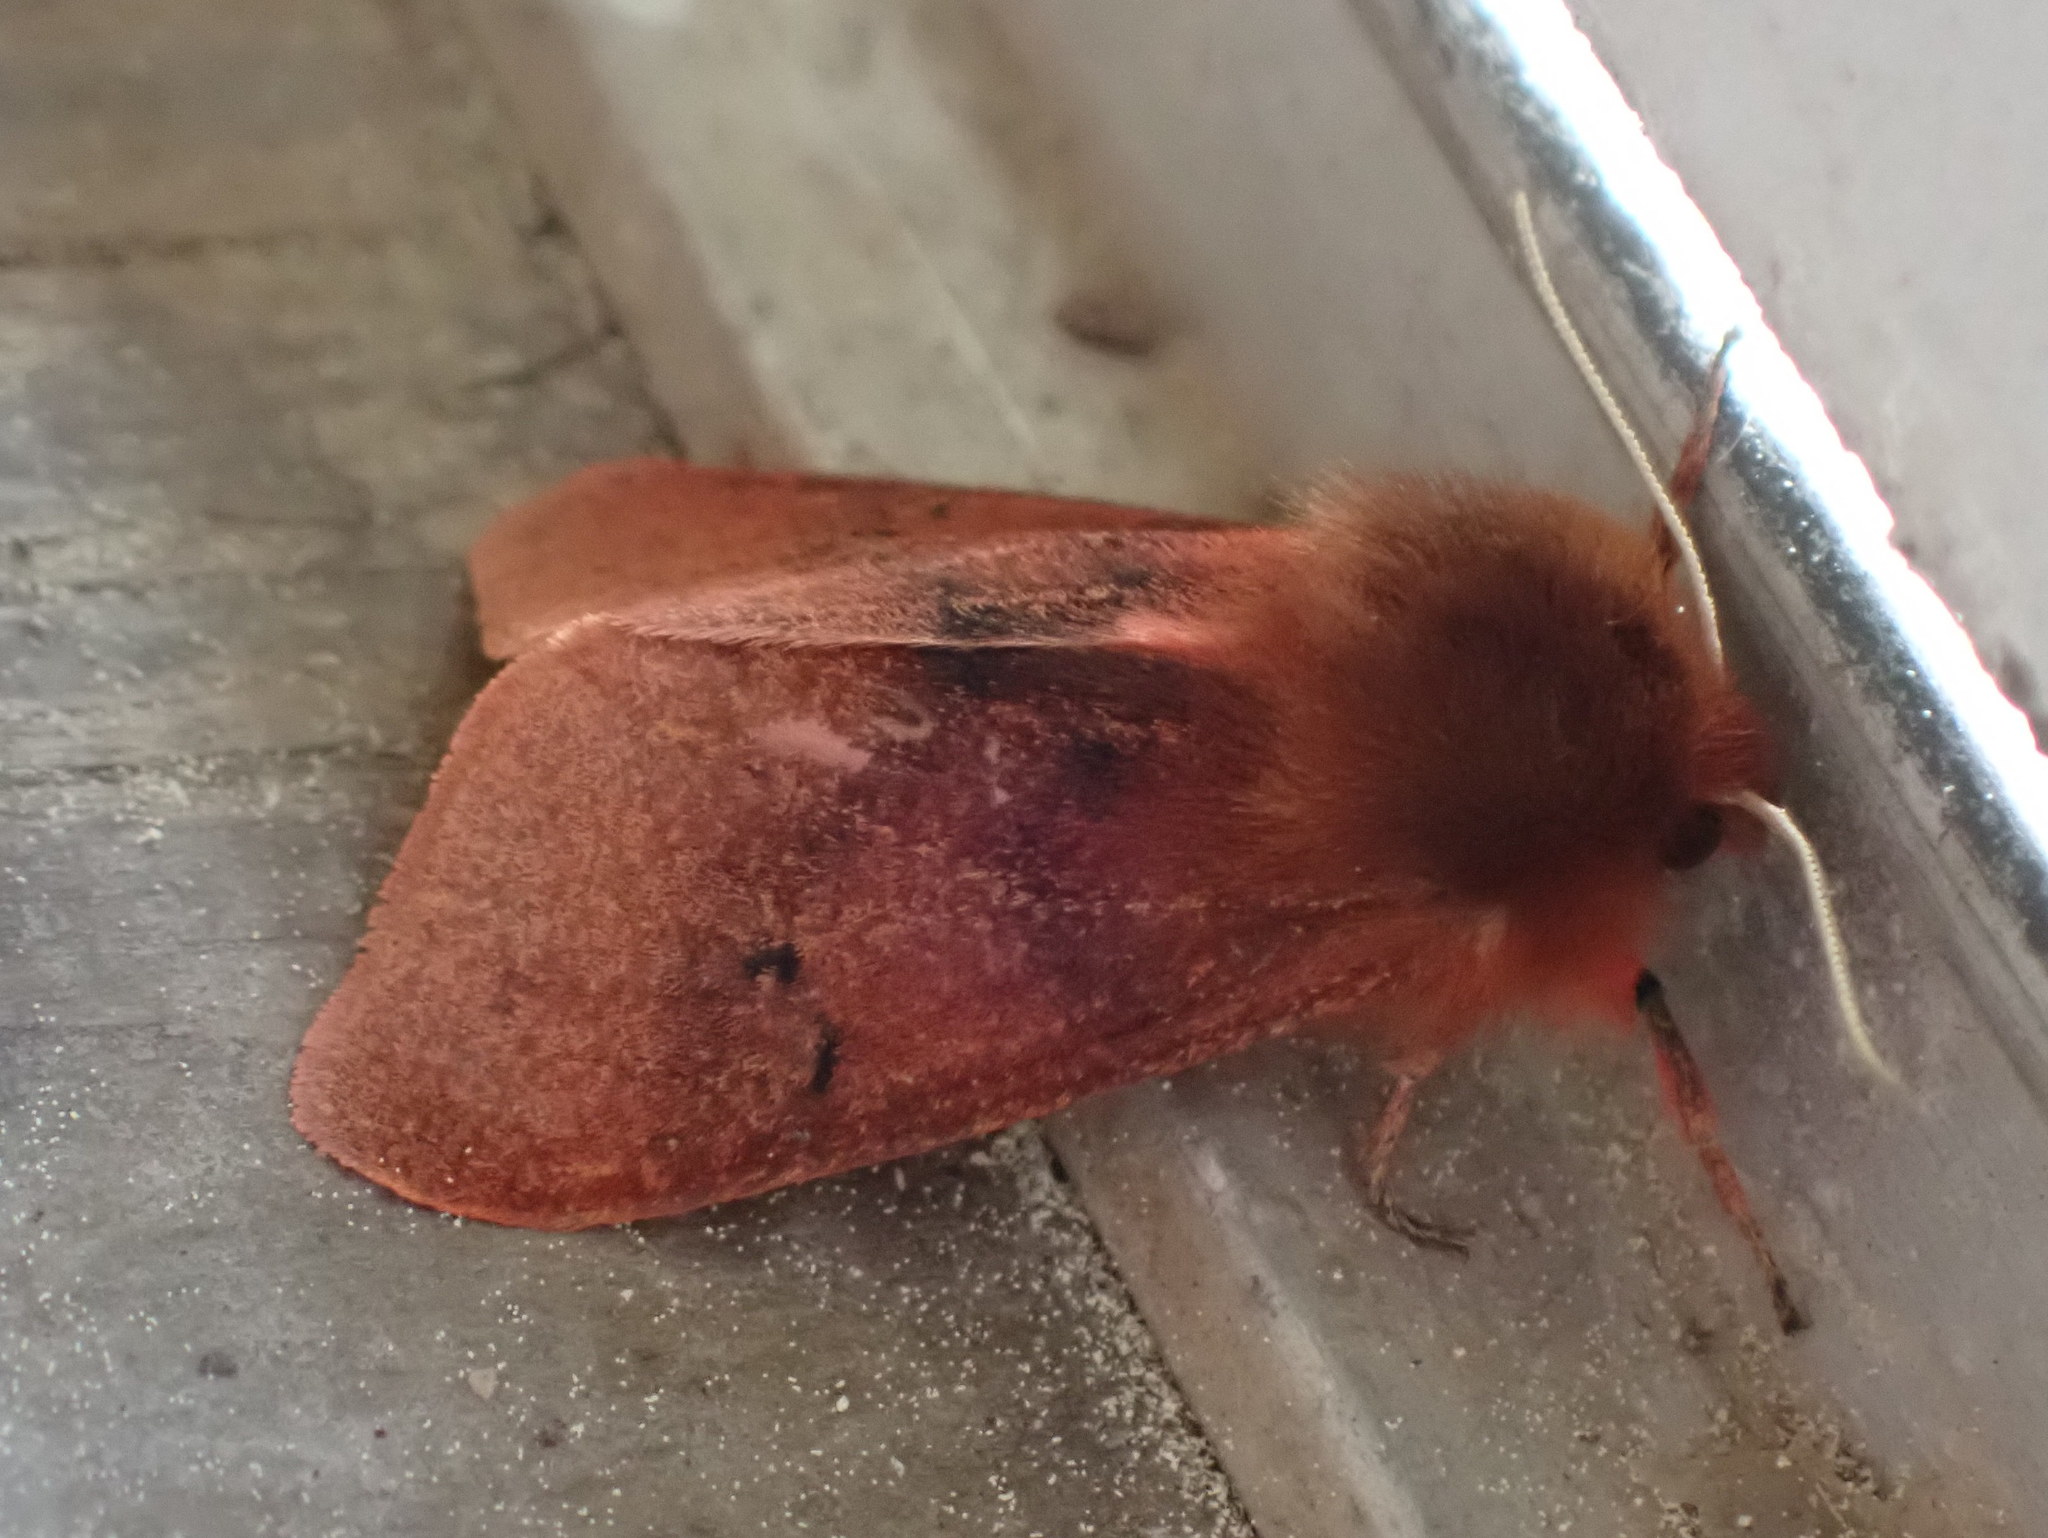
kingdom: Animalia
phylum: Arthropoda
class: Insecta
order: Lepidoptera
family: Erebidae
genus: Phragmatobia
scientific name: Phragmatobia fuliginosa
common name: Ruby tiger
